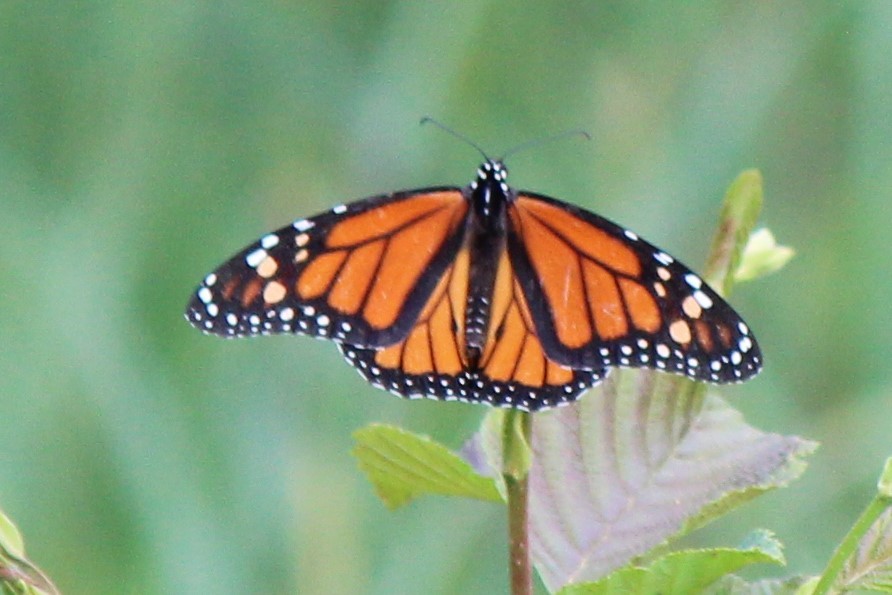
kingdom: Animalia
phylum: Arthropoda
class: Insecta
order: Lepidoptera
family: Nymphalidae
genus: Danaus
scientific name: Danaus plexippus
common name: Monarch
